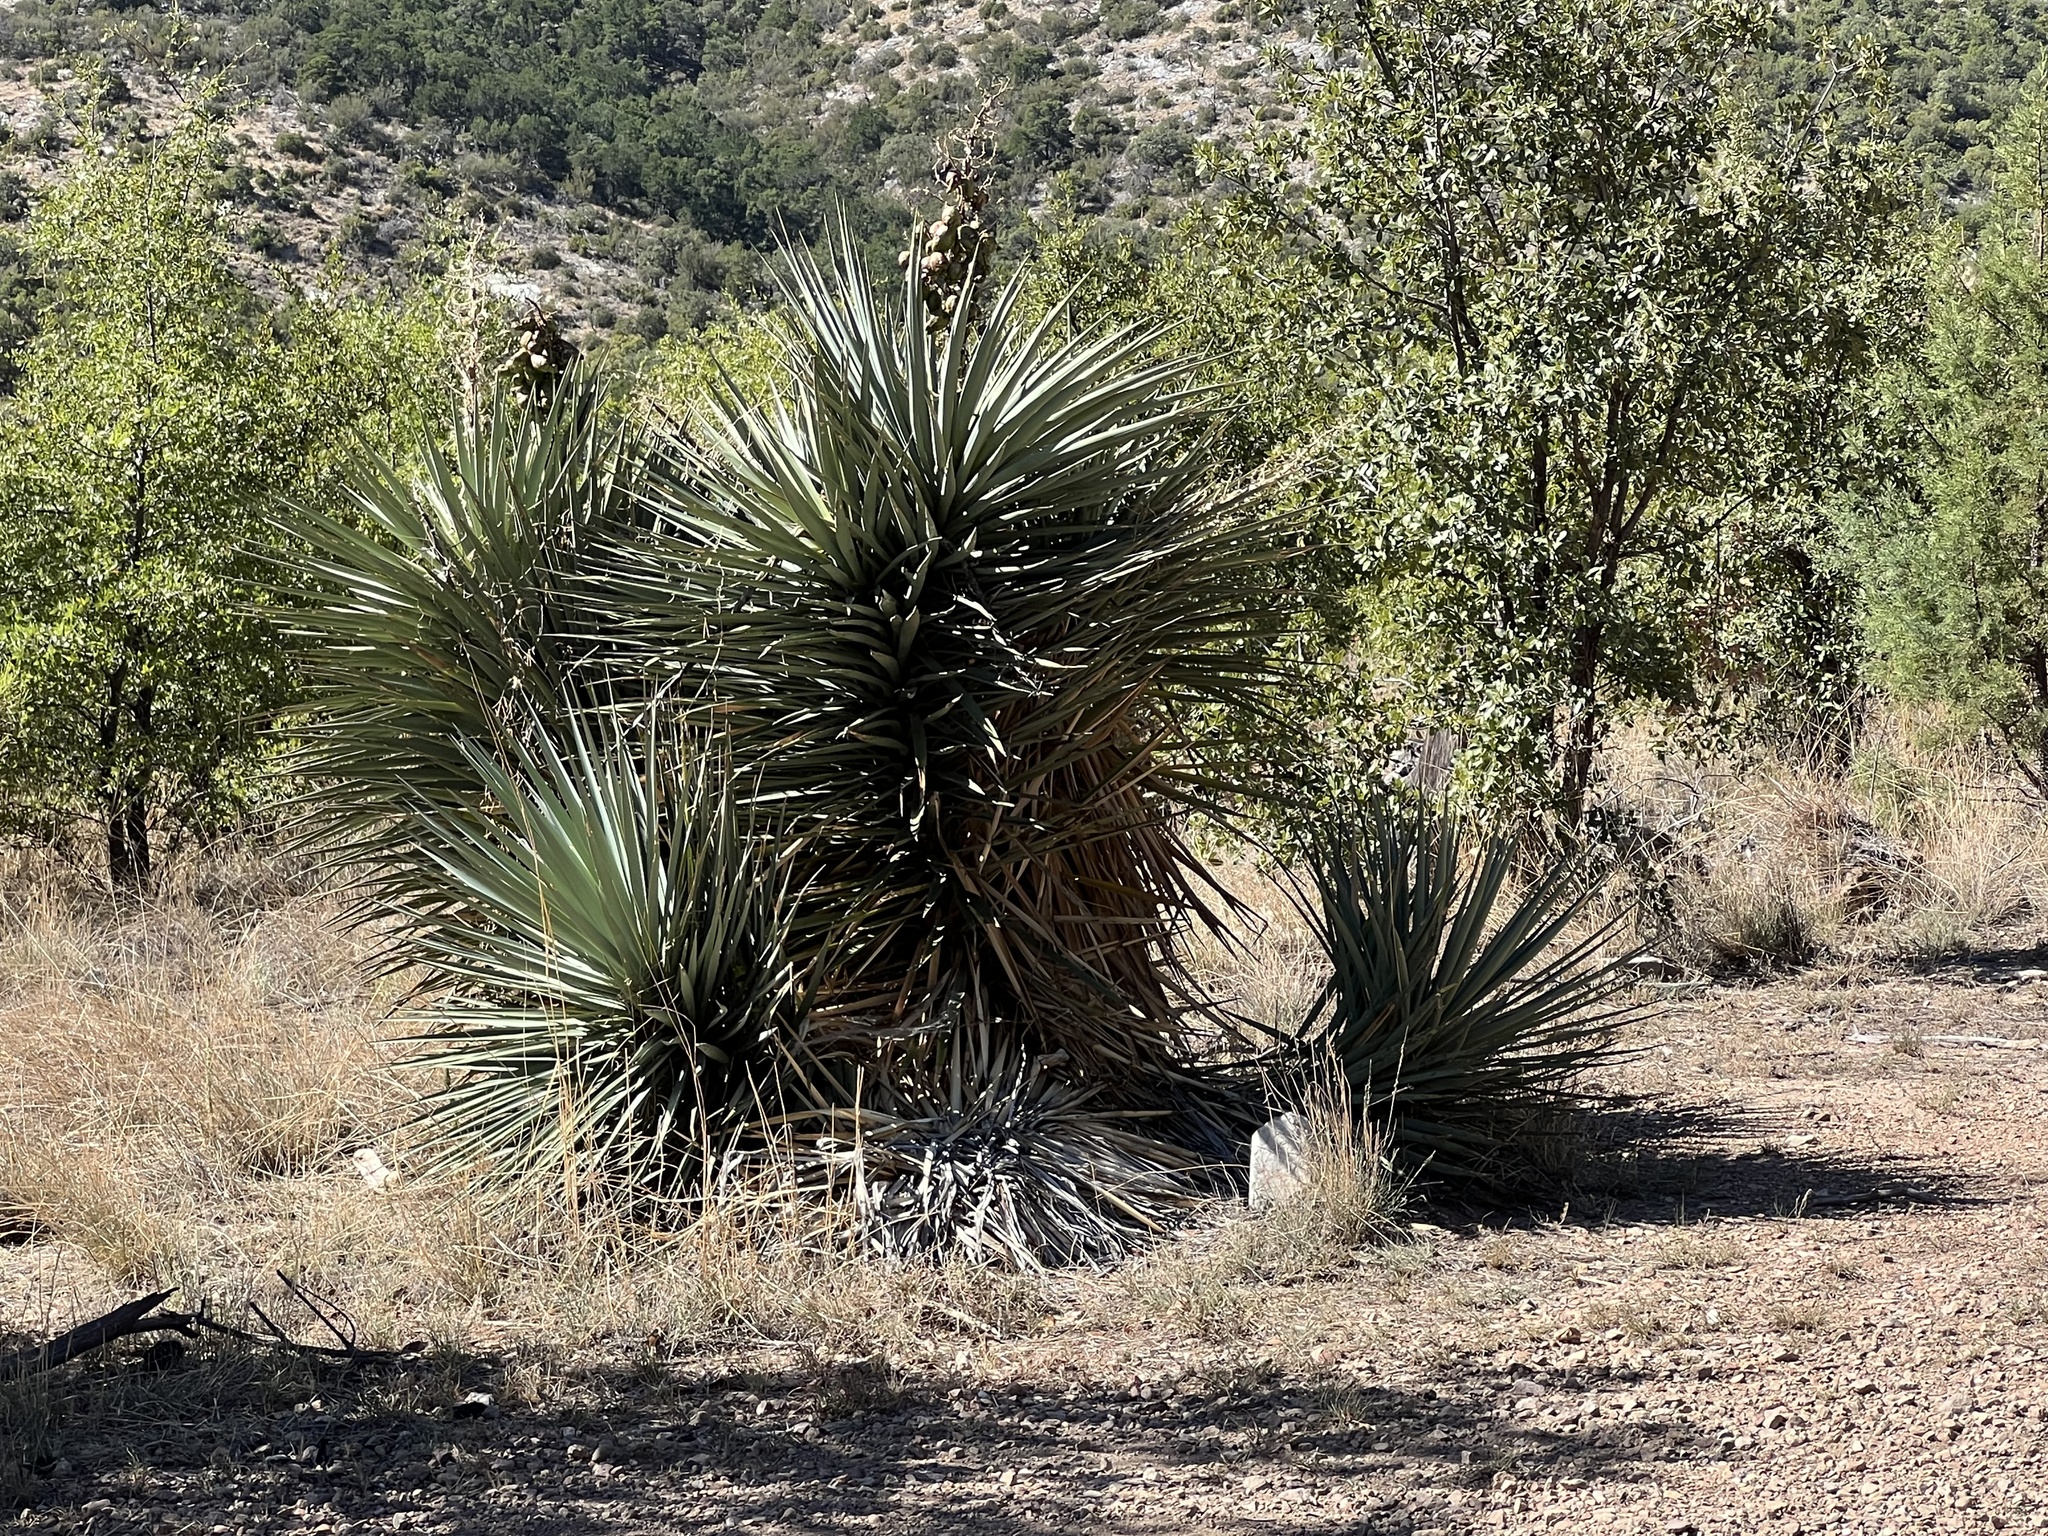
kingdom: Plantae
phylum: Tracheophyta
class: Liliopsida
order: Asparagales
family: Asparagaceae
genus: Yucca
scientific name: Yucca schottii
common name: Hoary yucca
